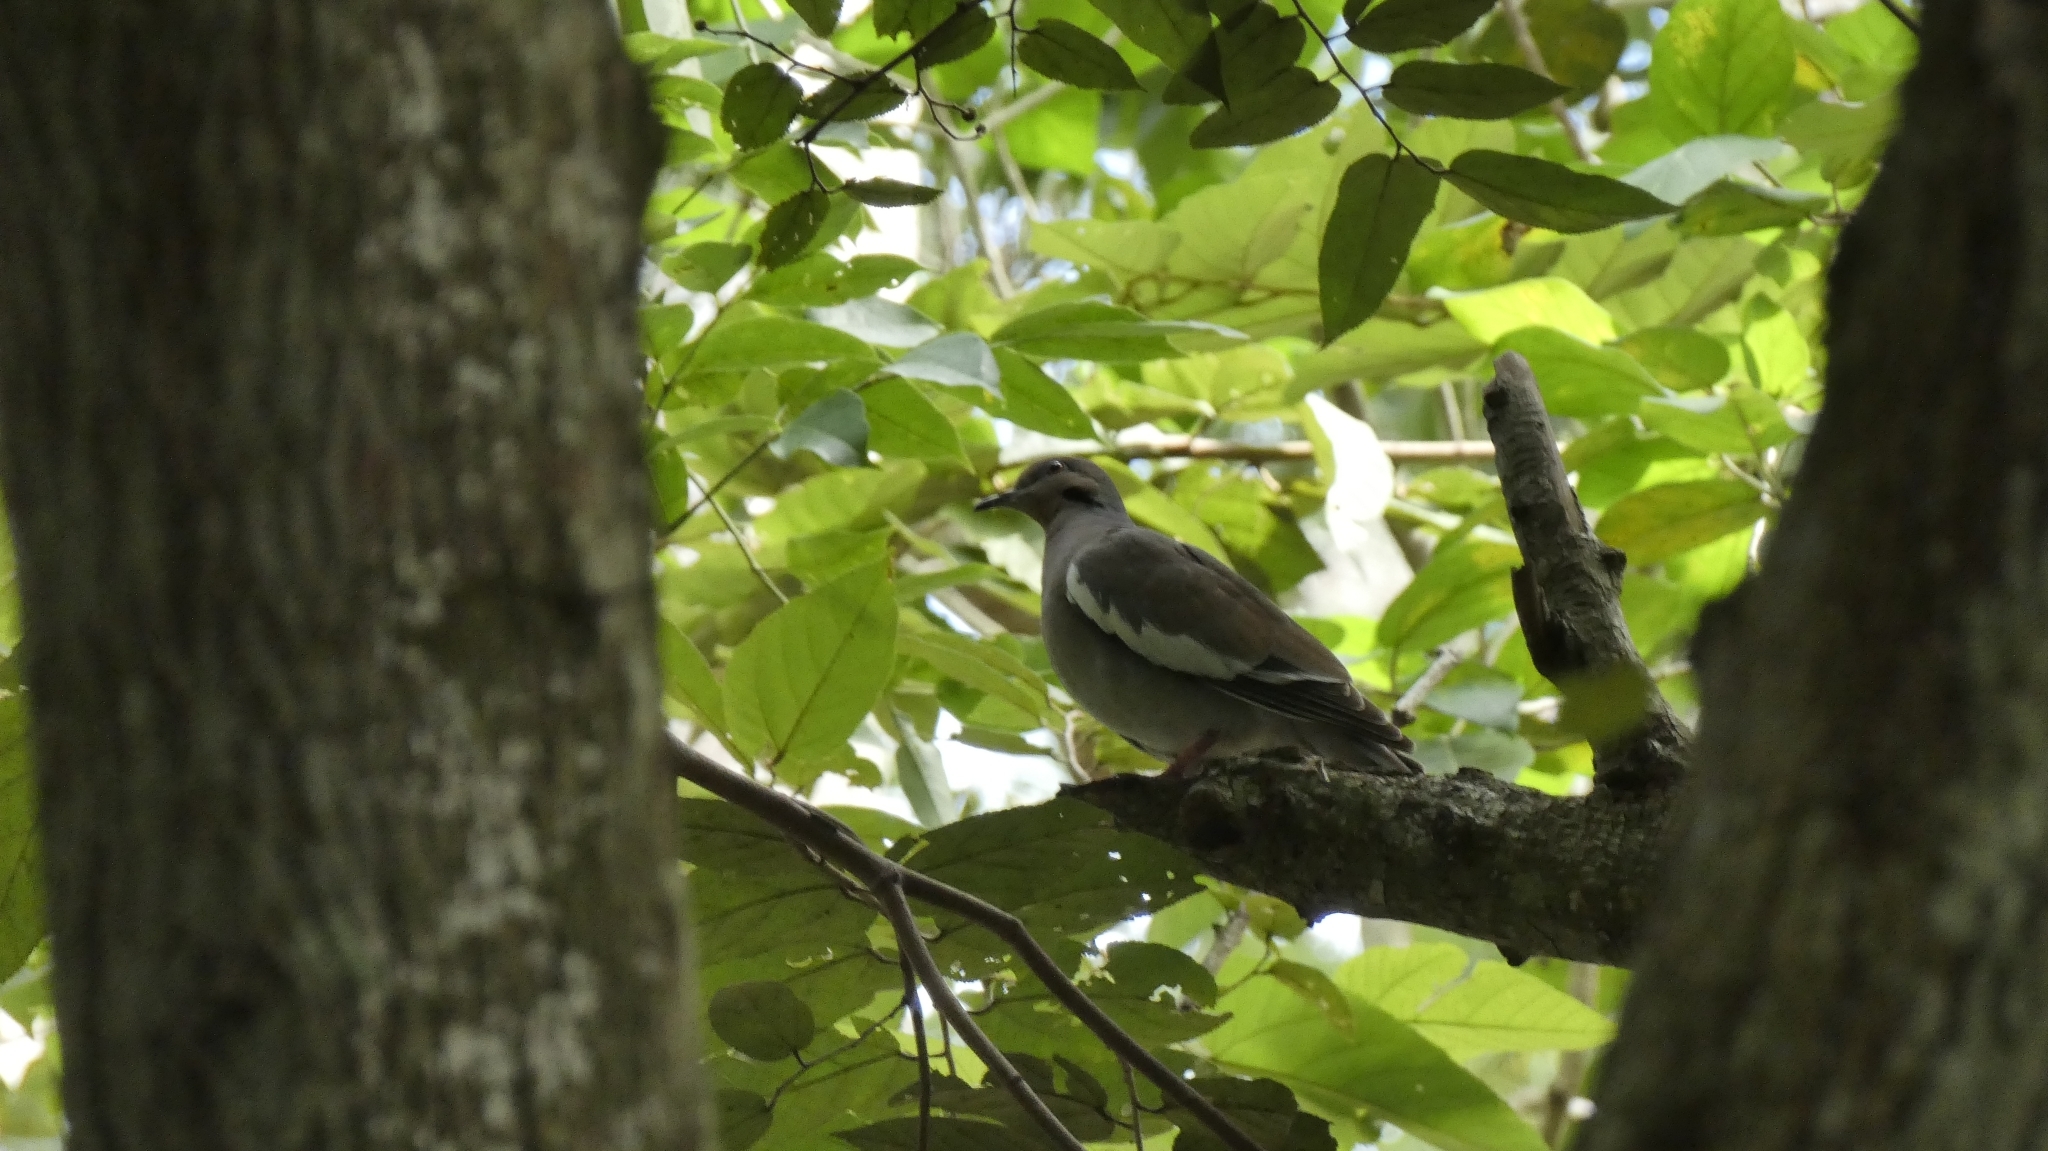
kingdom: Animalia
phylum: Chordata
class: Aves
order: Columbiformes
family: Columbidae
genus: Zenaida
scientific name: Zenaida asiatica
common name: White-winged dove
